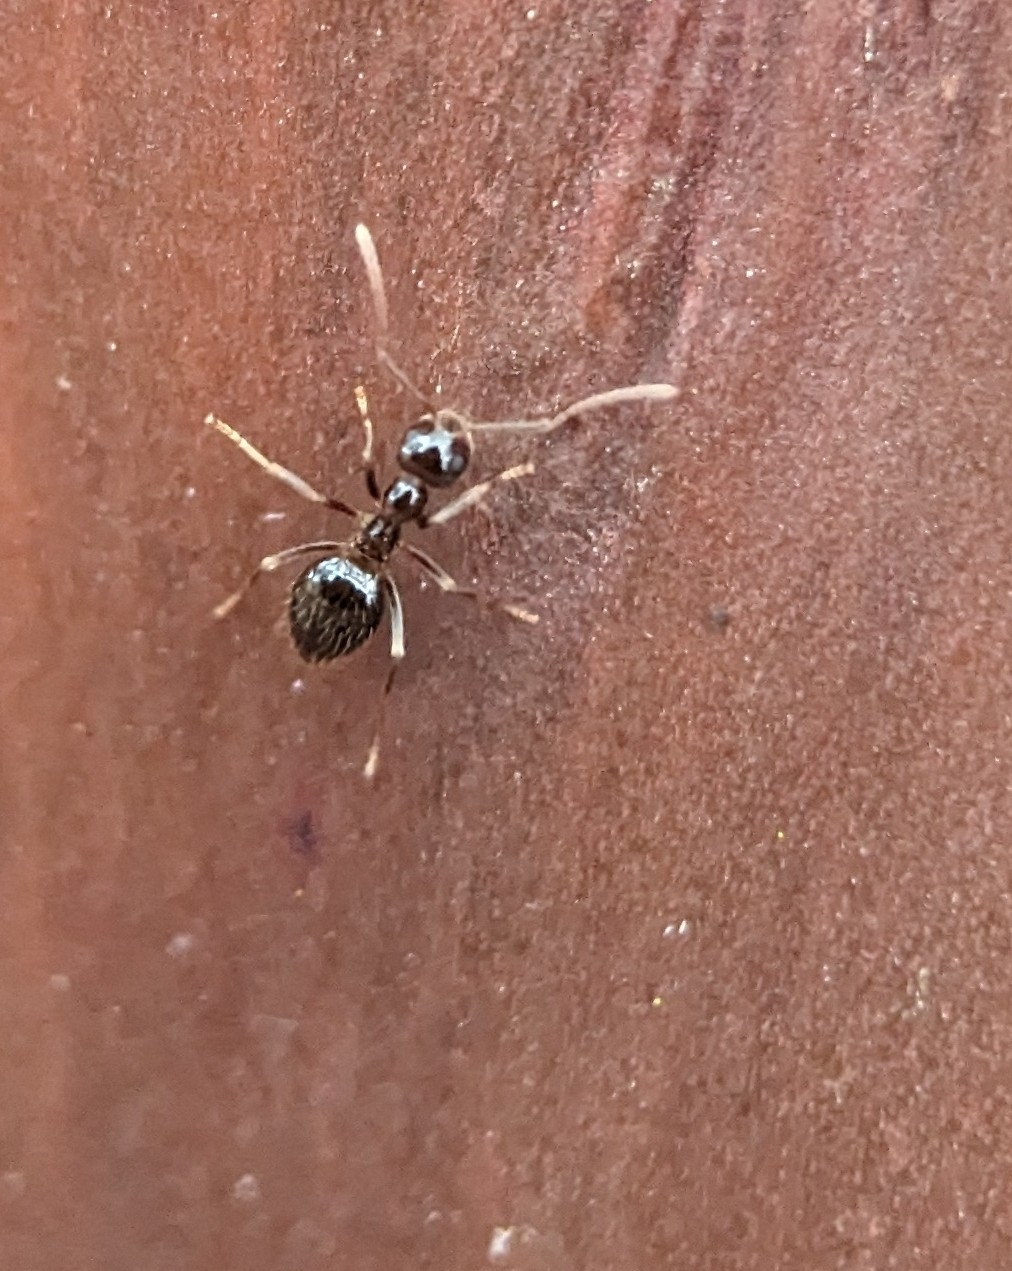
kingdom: Animalia
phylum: Arthropoda
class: Insecta
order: Hymenoptera
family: Formicidae
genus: Prenolepis
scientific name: Prenolepis imparis
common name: Small honey ant
